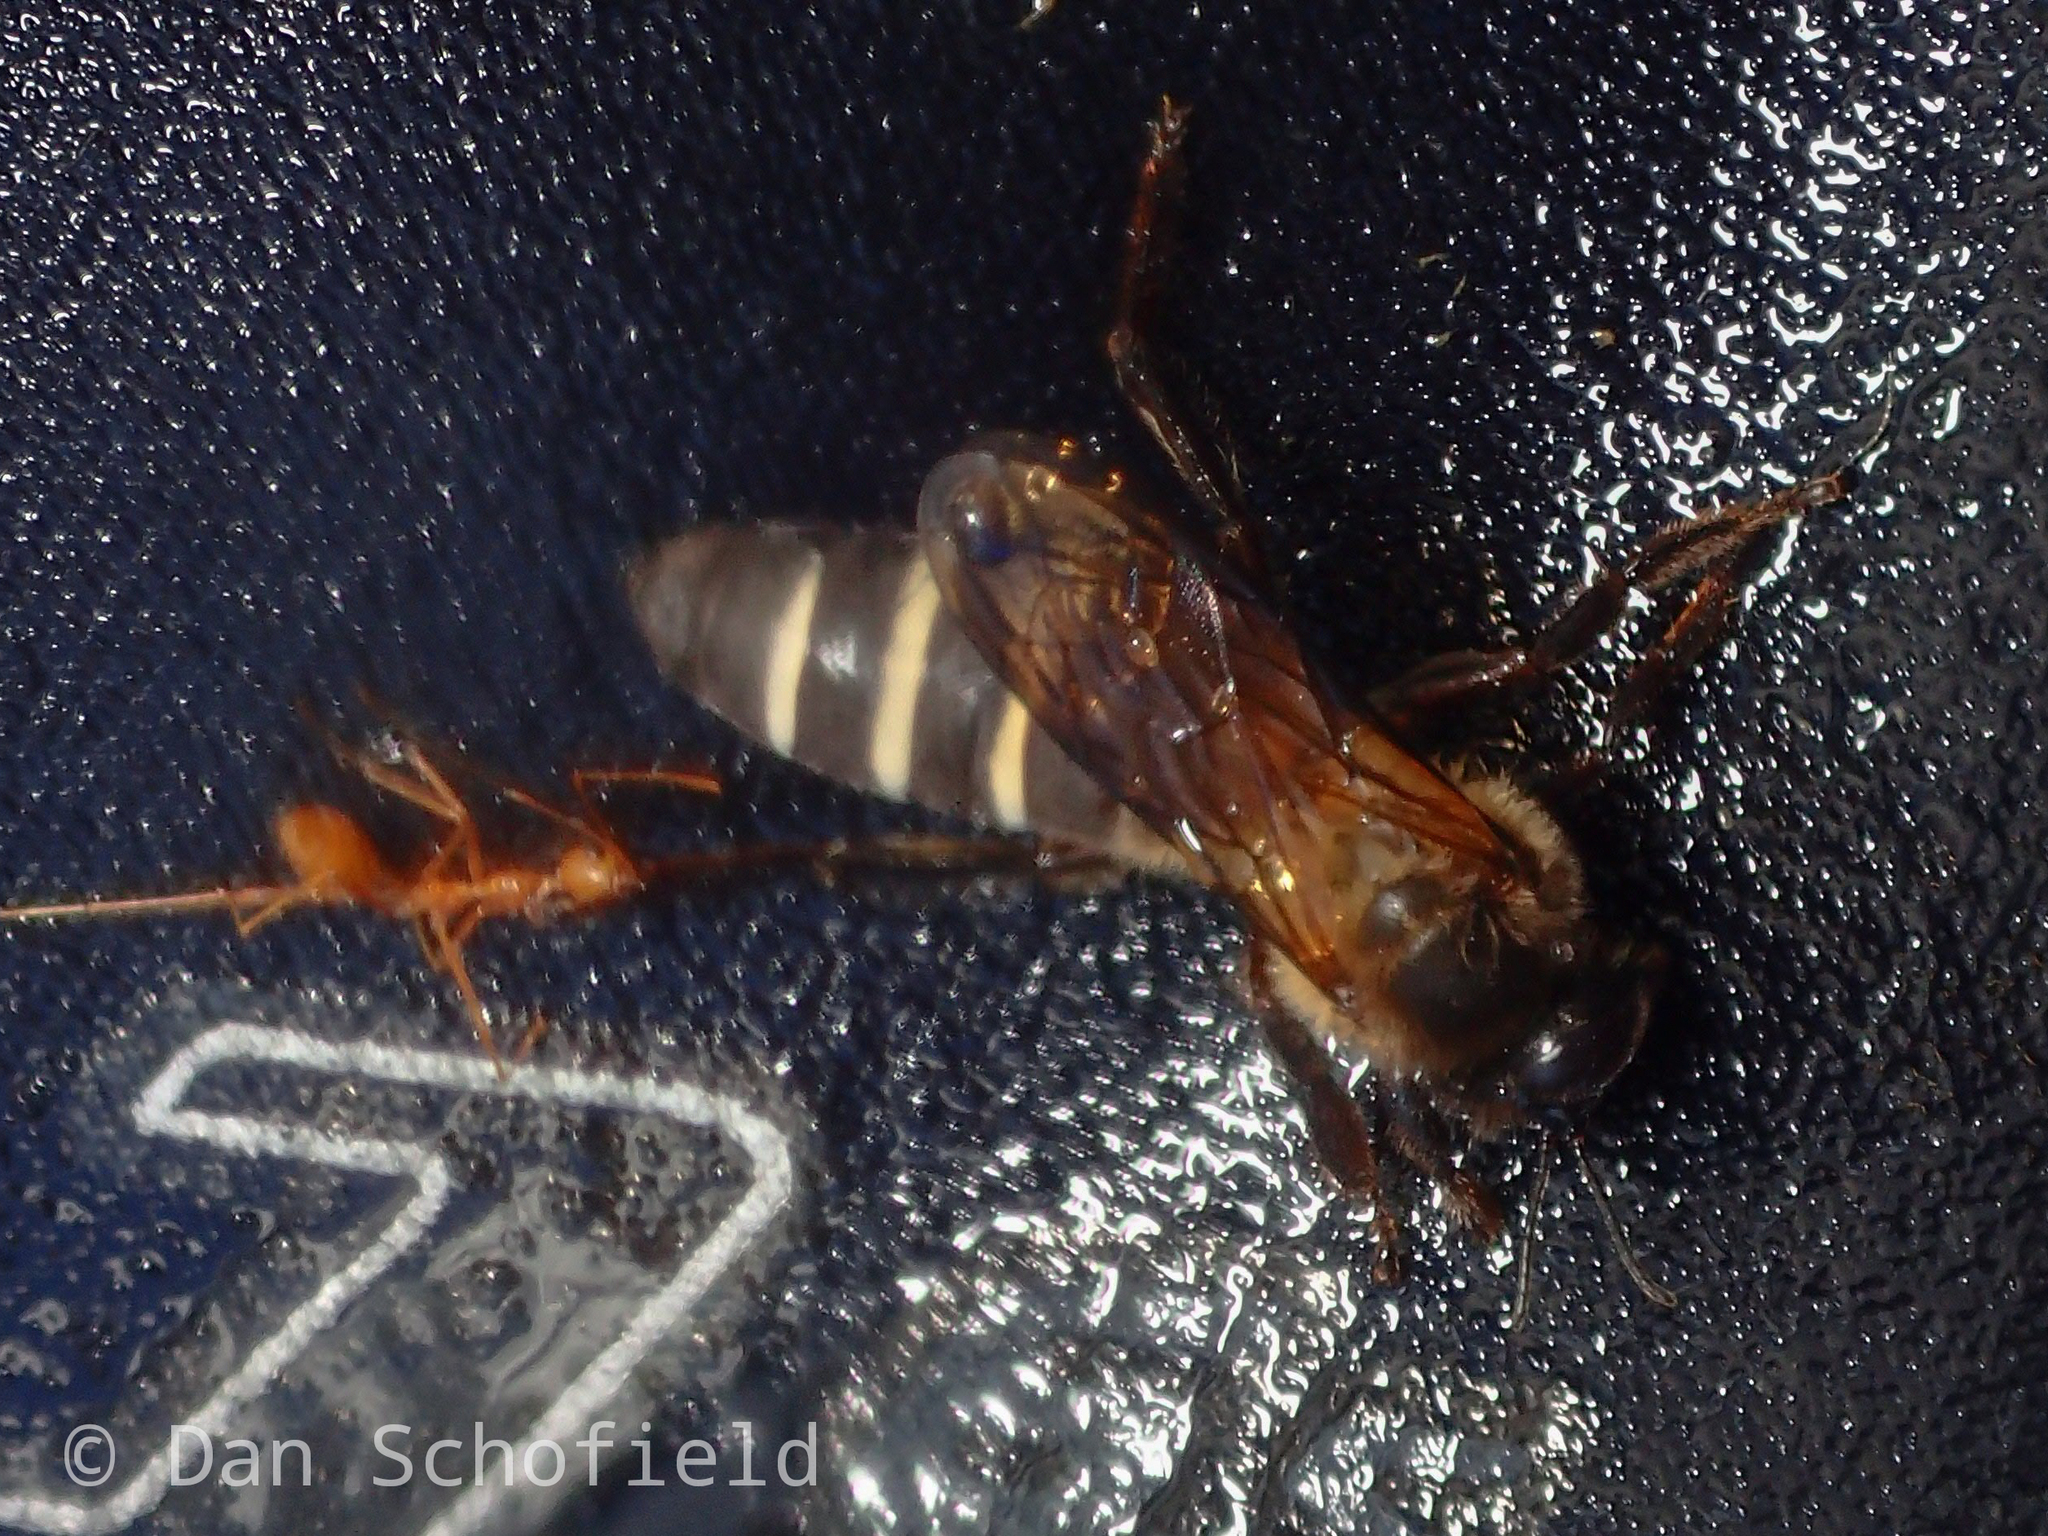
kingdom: Animalia
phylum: Arthropoda
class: Insecta
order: Hymenoptera
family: Apidae
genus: Apis
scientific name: Apis dorsata
